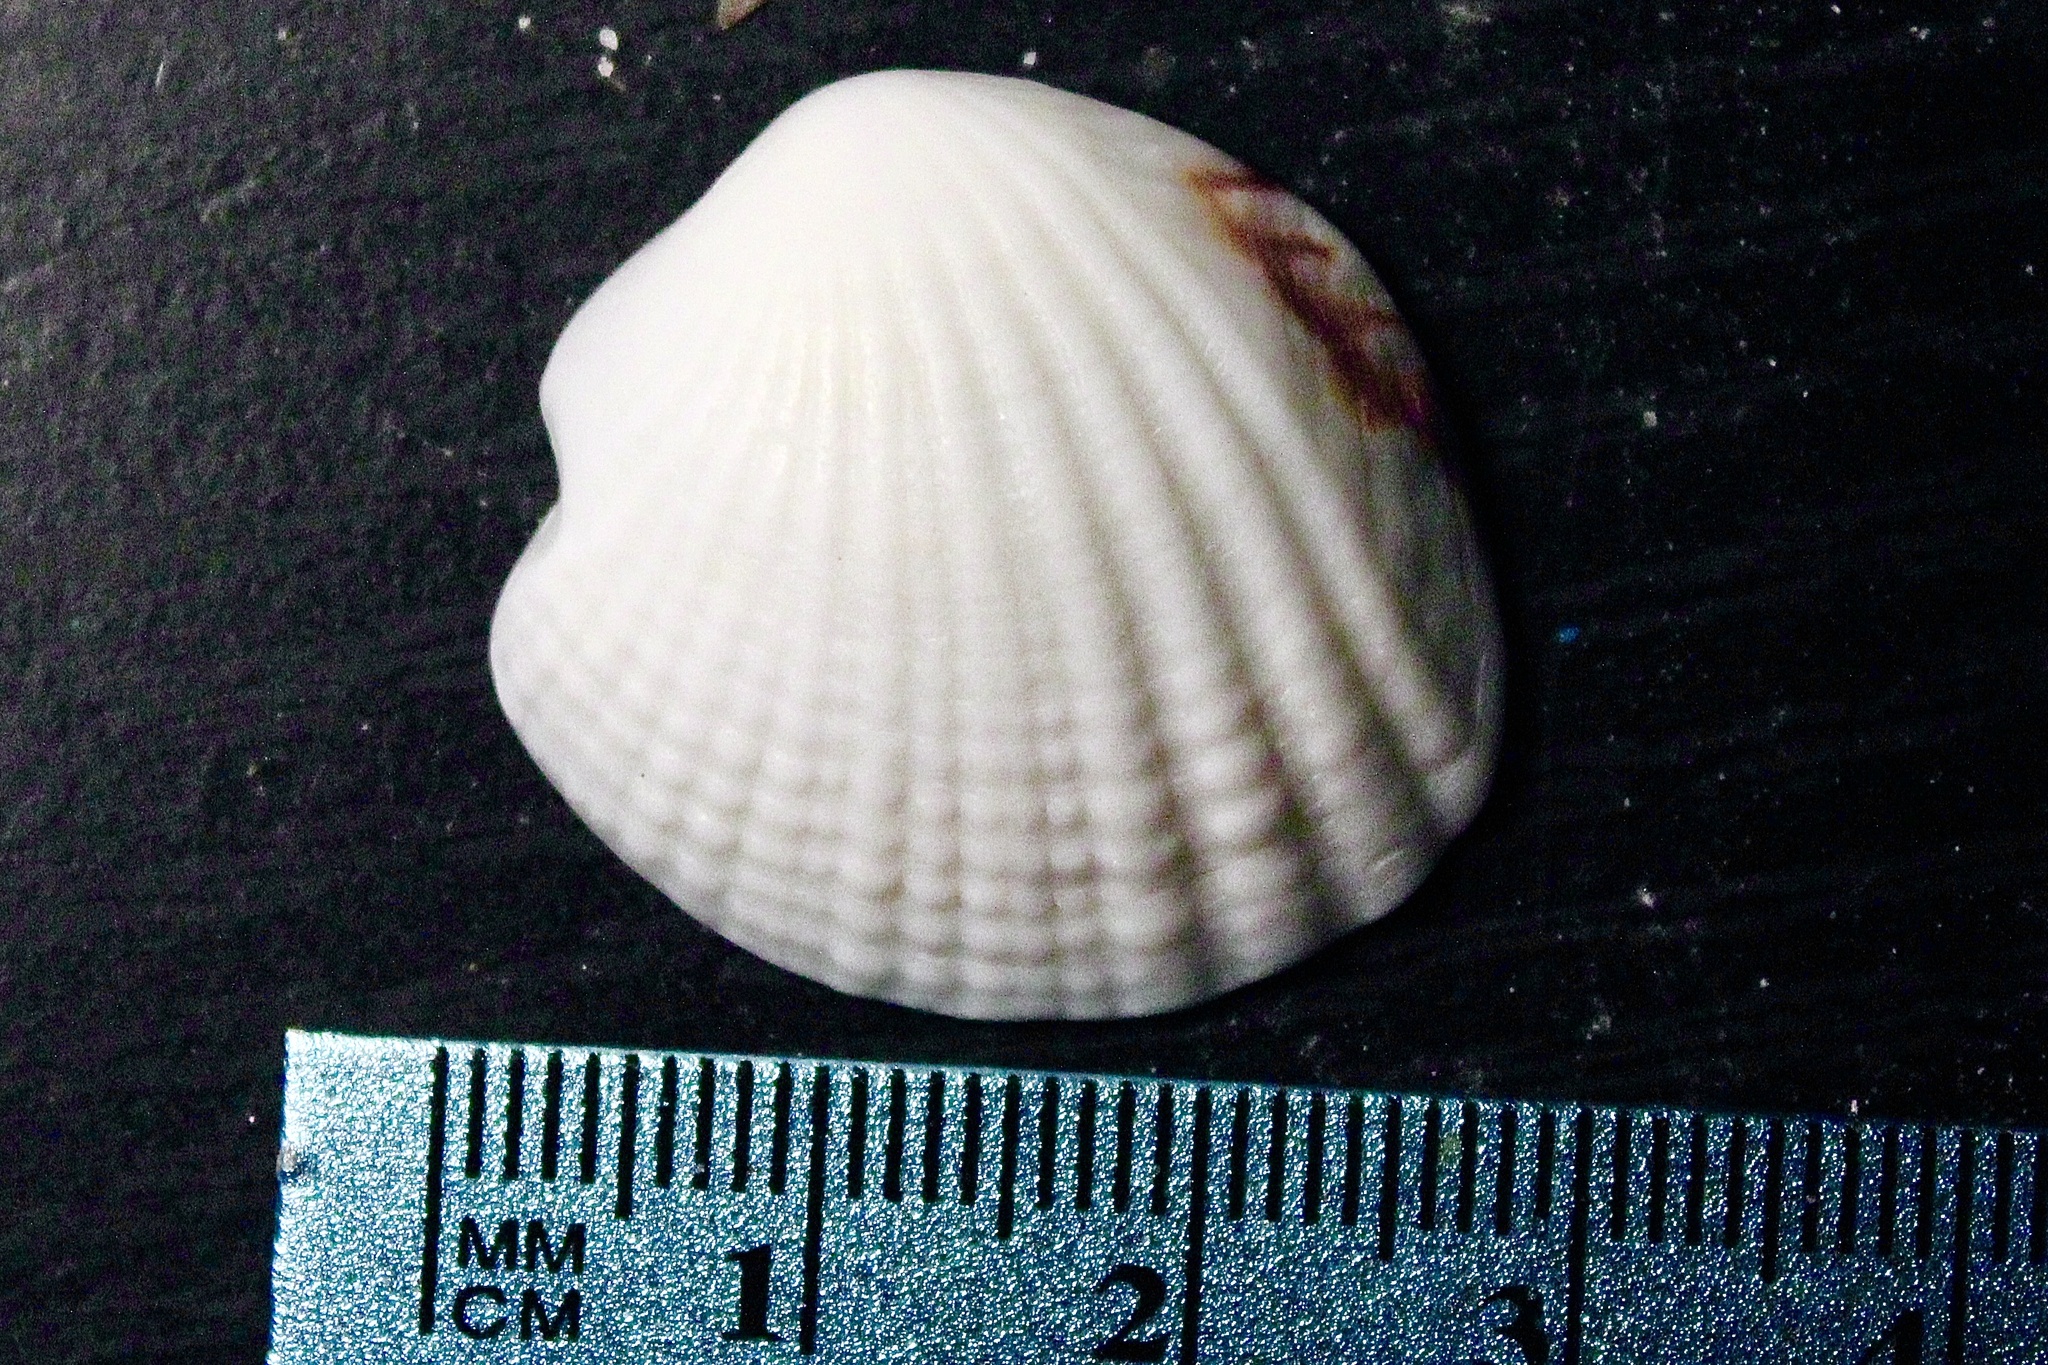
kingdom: Animalia
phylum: Mollusca
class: Bivalvia
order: Venerida
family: Veneridae
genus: Gafrarium
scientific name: Gafrarium pectinatum
